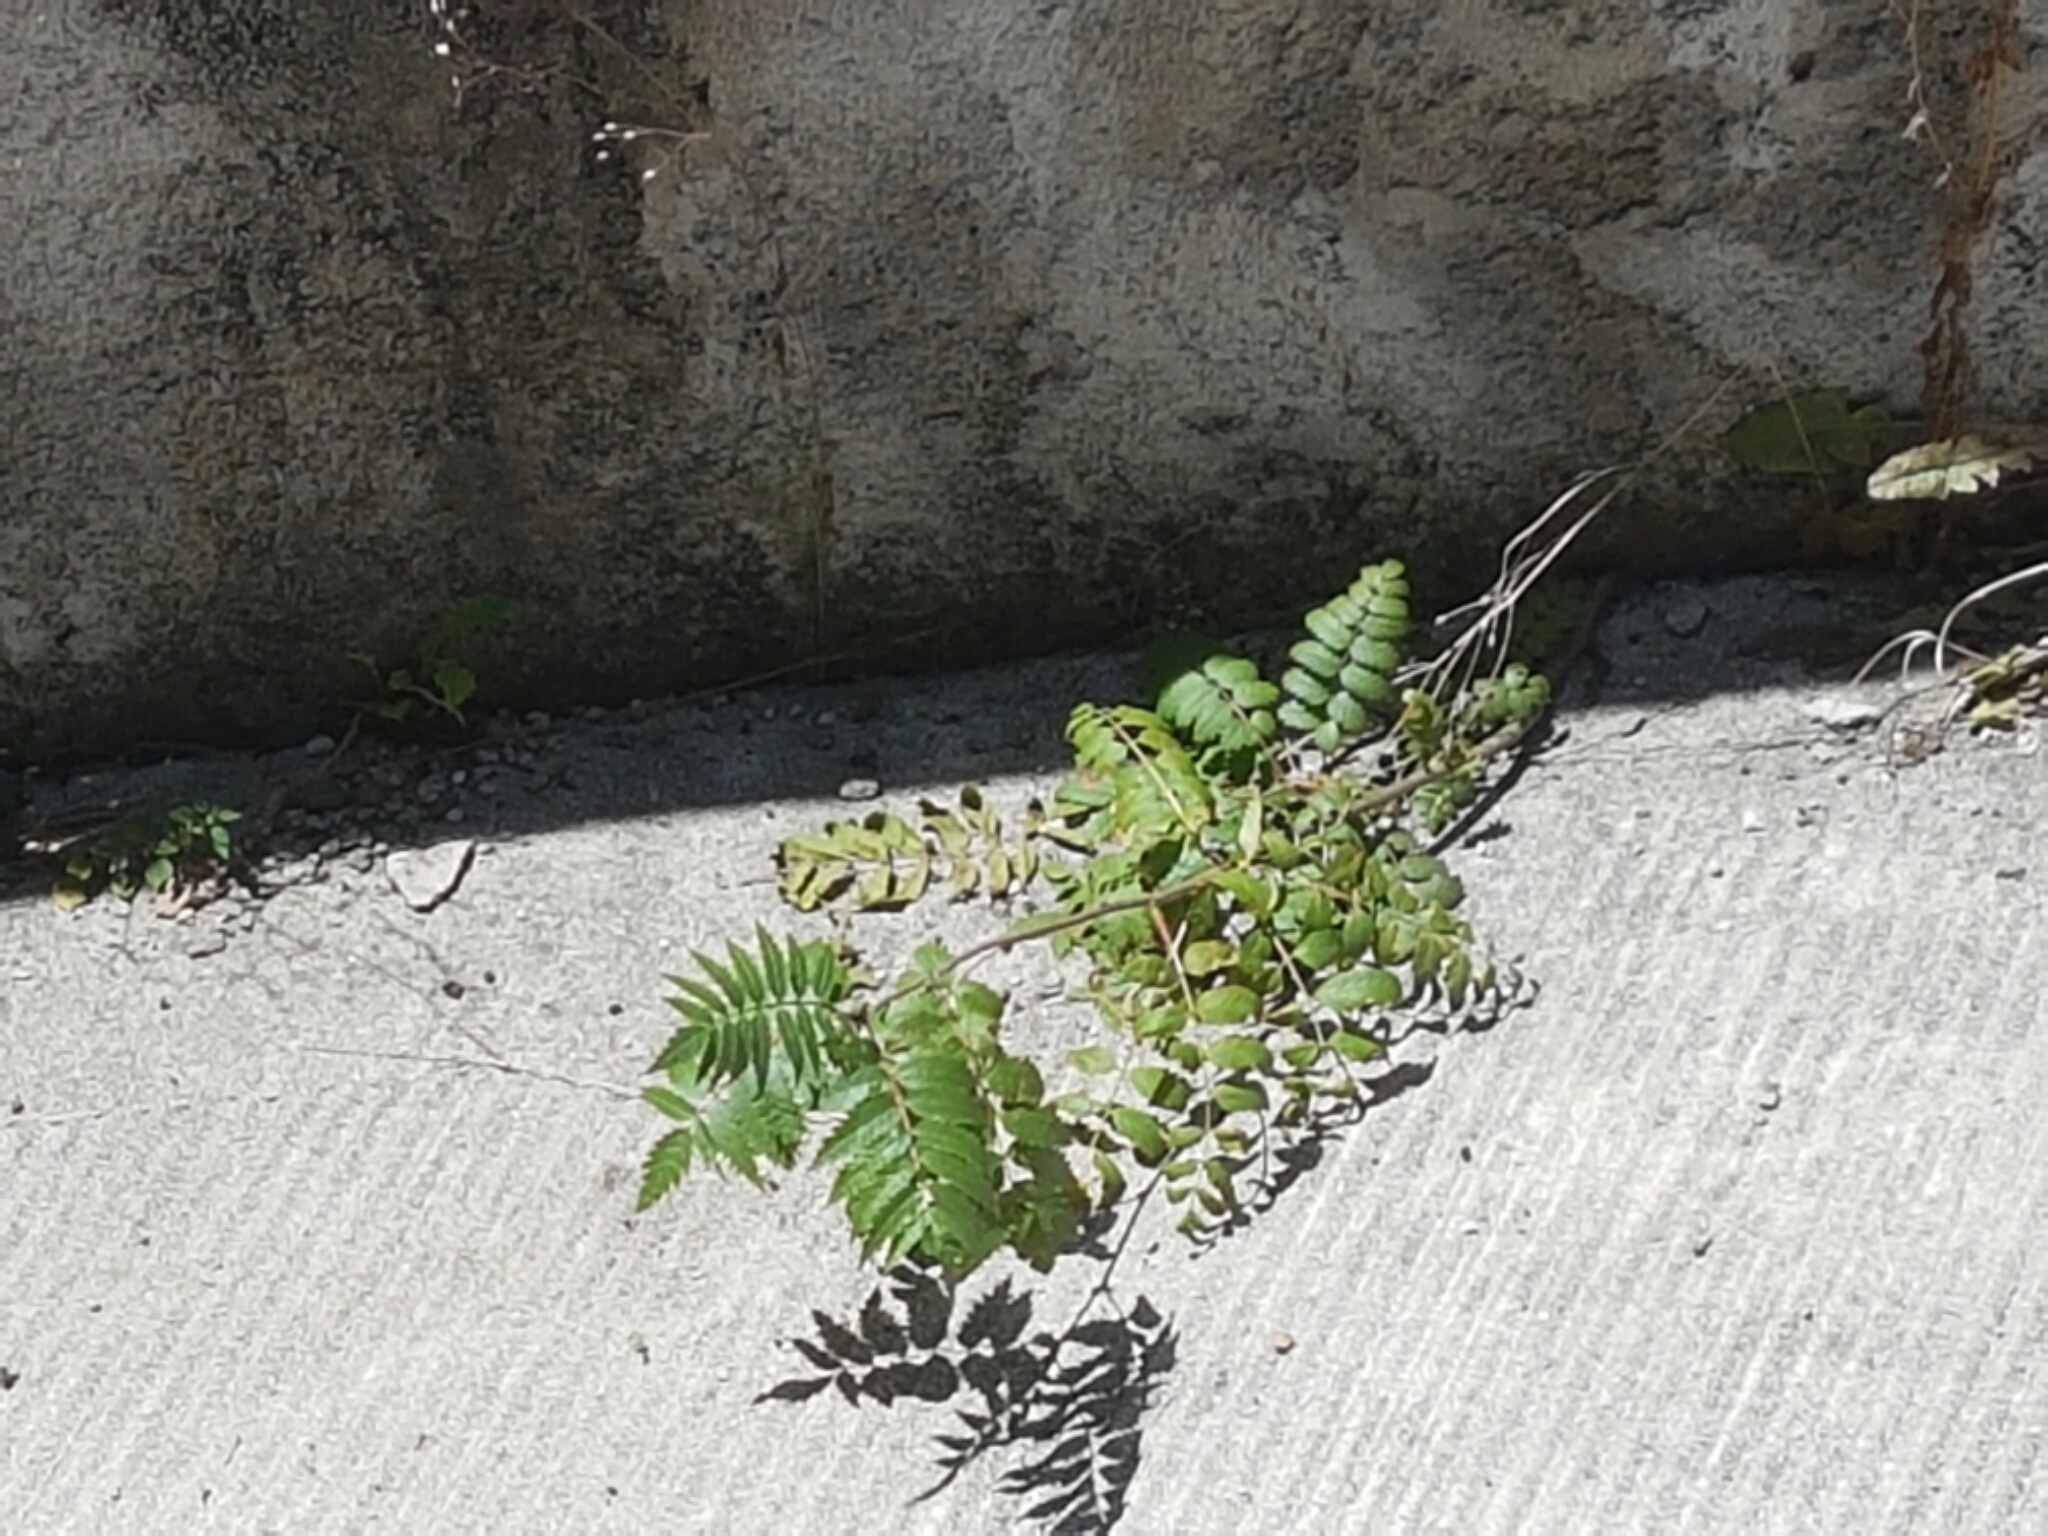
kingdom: Plantae
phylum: Tracheophyta
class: Magnoliopsida
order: Sapindales
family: Simaroubaceae
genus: Ailanthus
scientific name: Ailanthus altissima
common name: Tree-of-heaven
